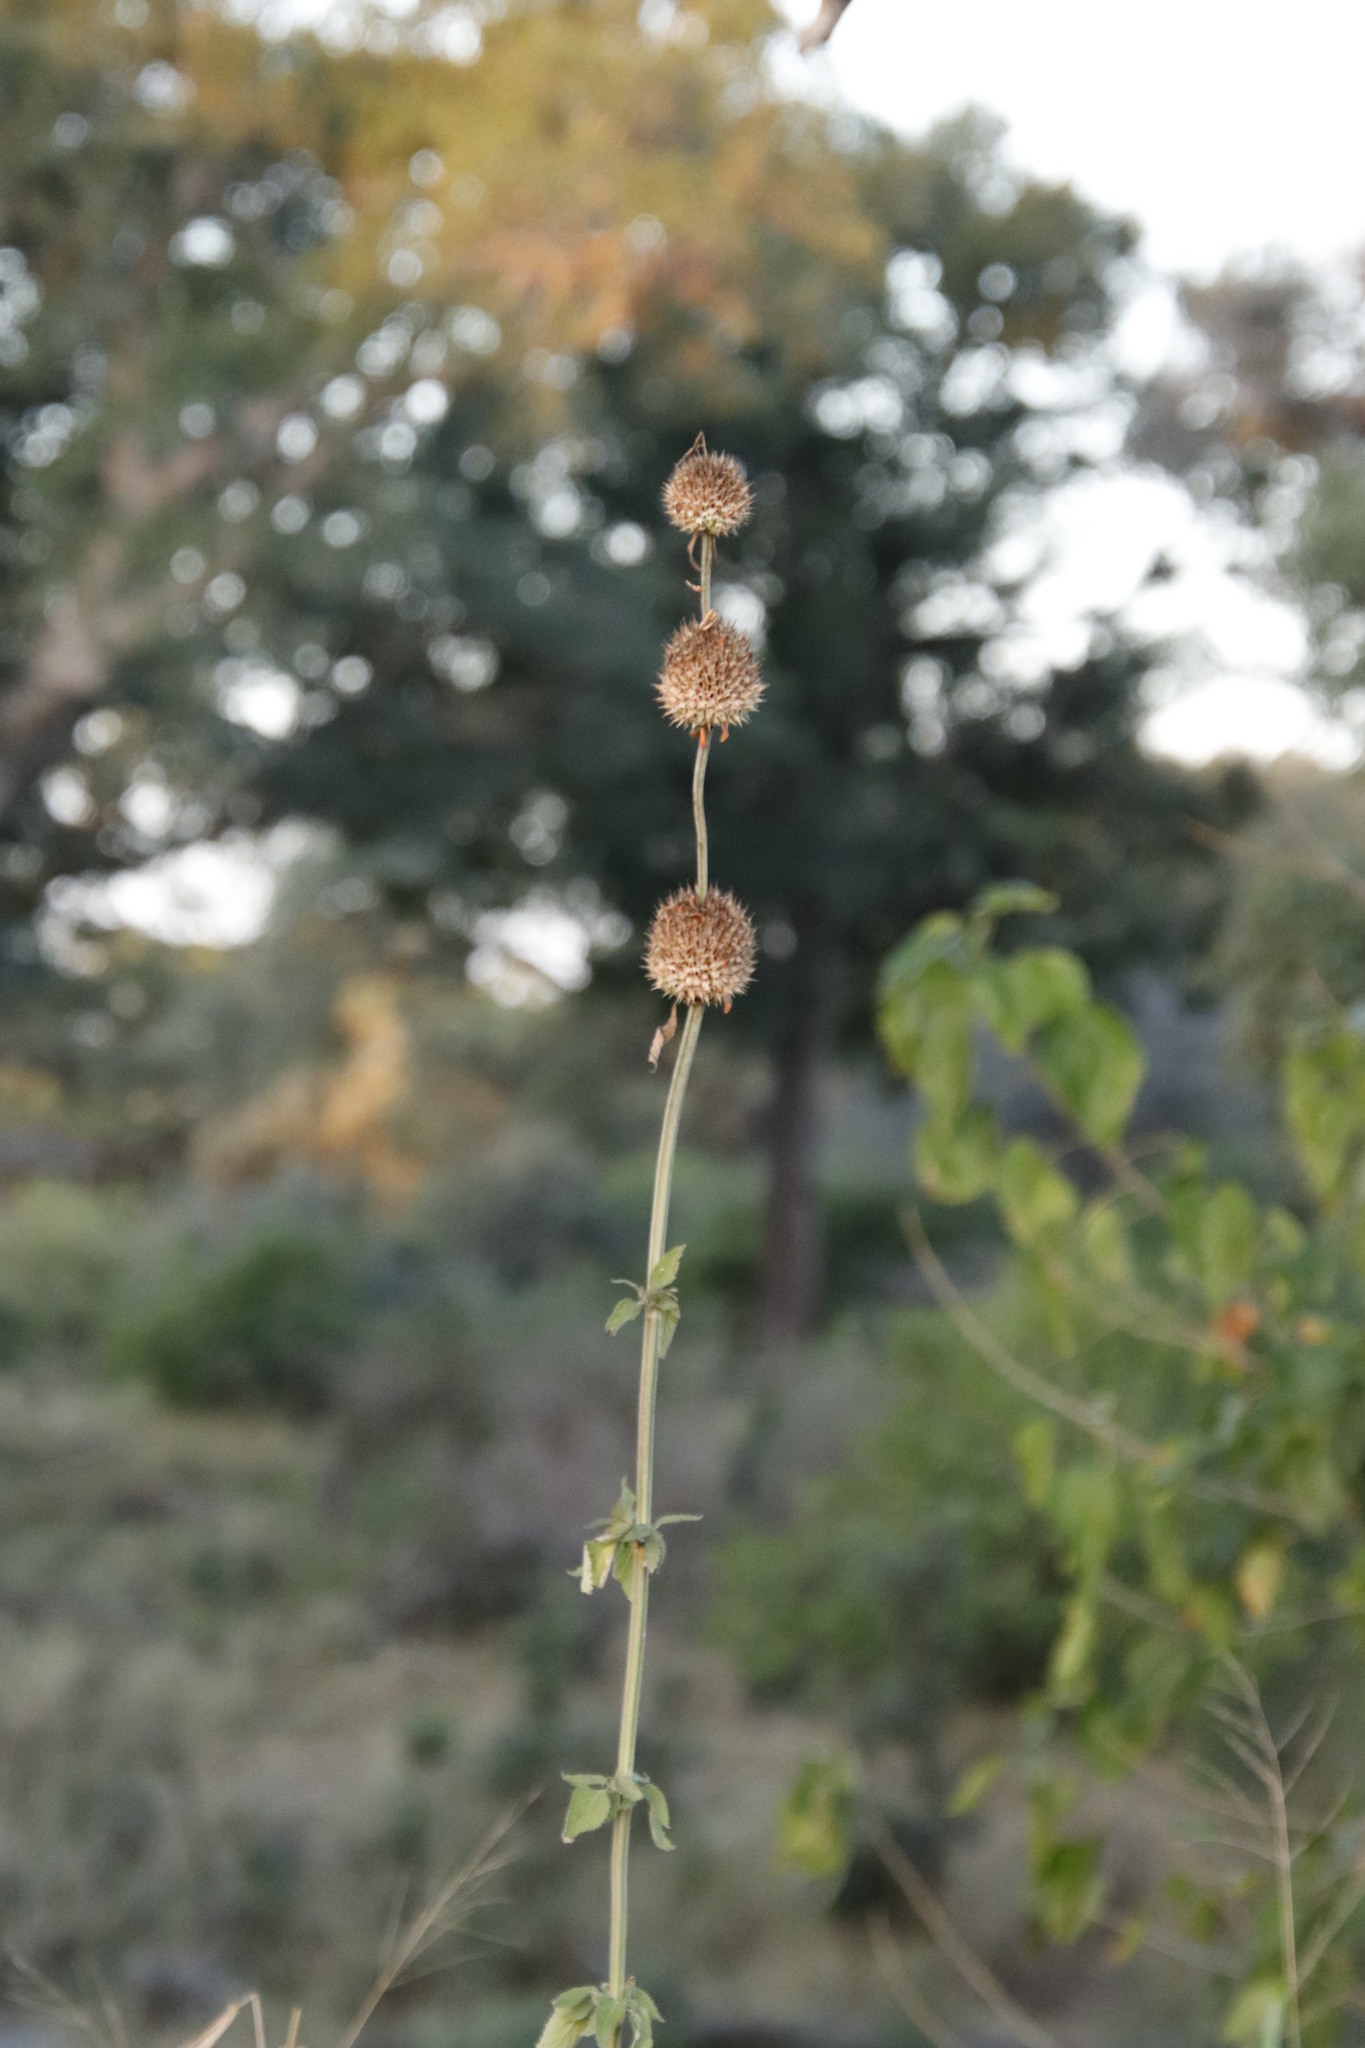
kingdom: Plantae
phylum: Tracheophyta
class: Magnoliopsida
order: Lamiales
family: Lamiaceae
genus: Leonotis
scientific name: Leonotis nepetifolia
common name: Christmas candlestick
